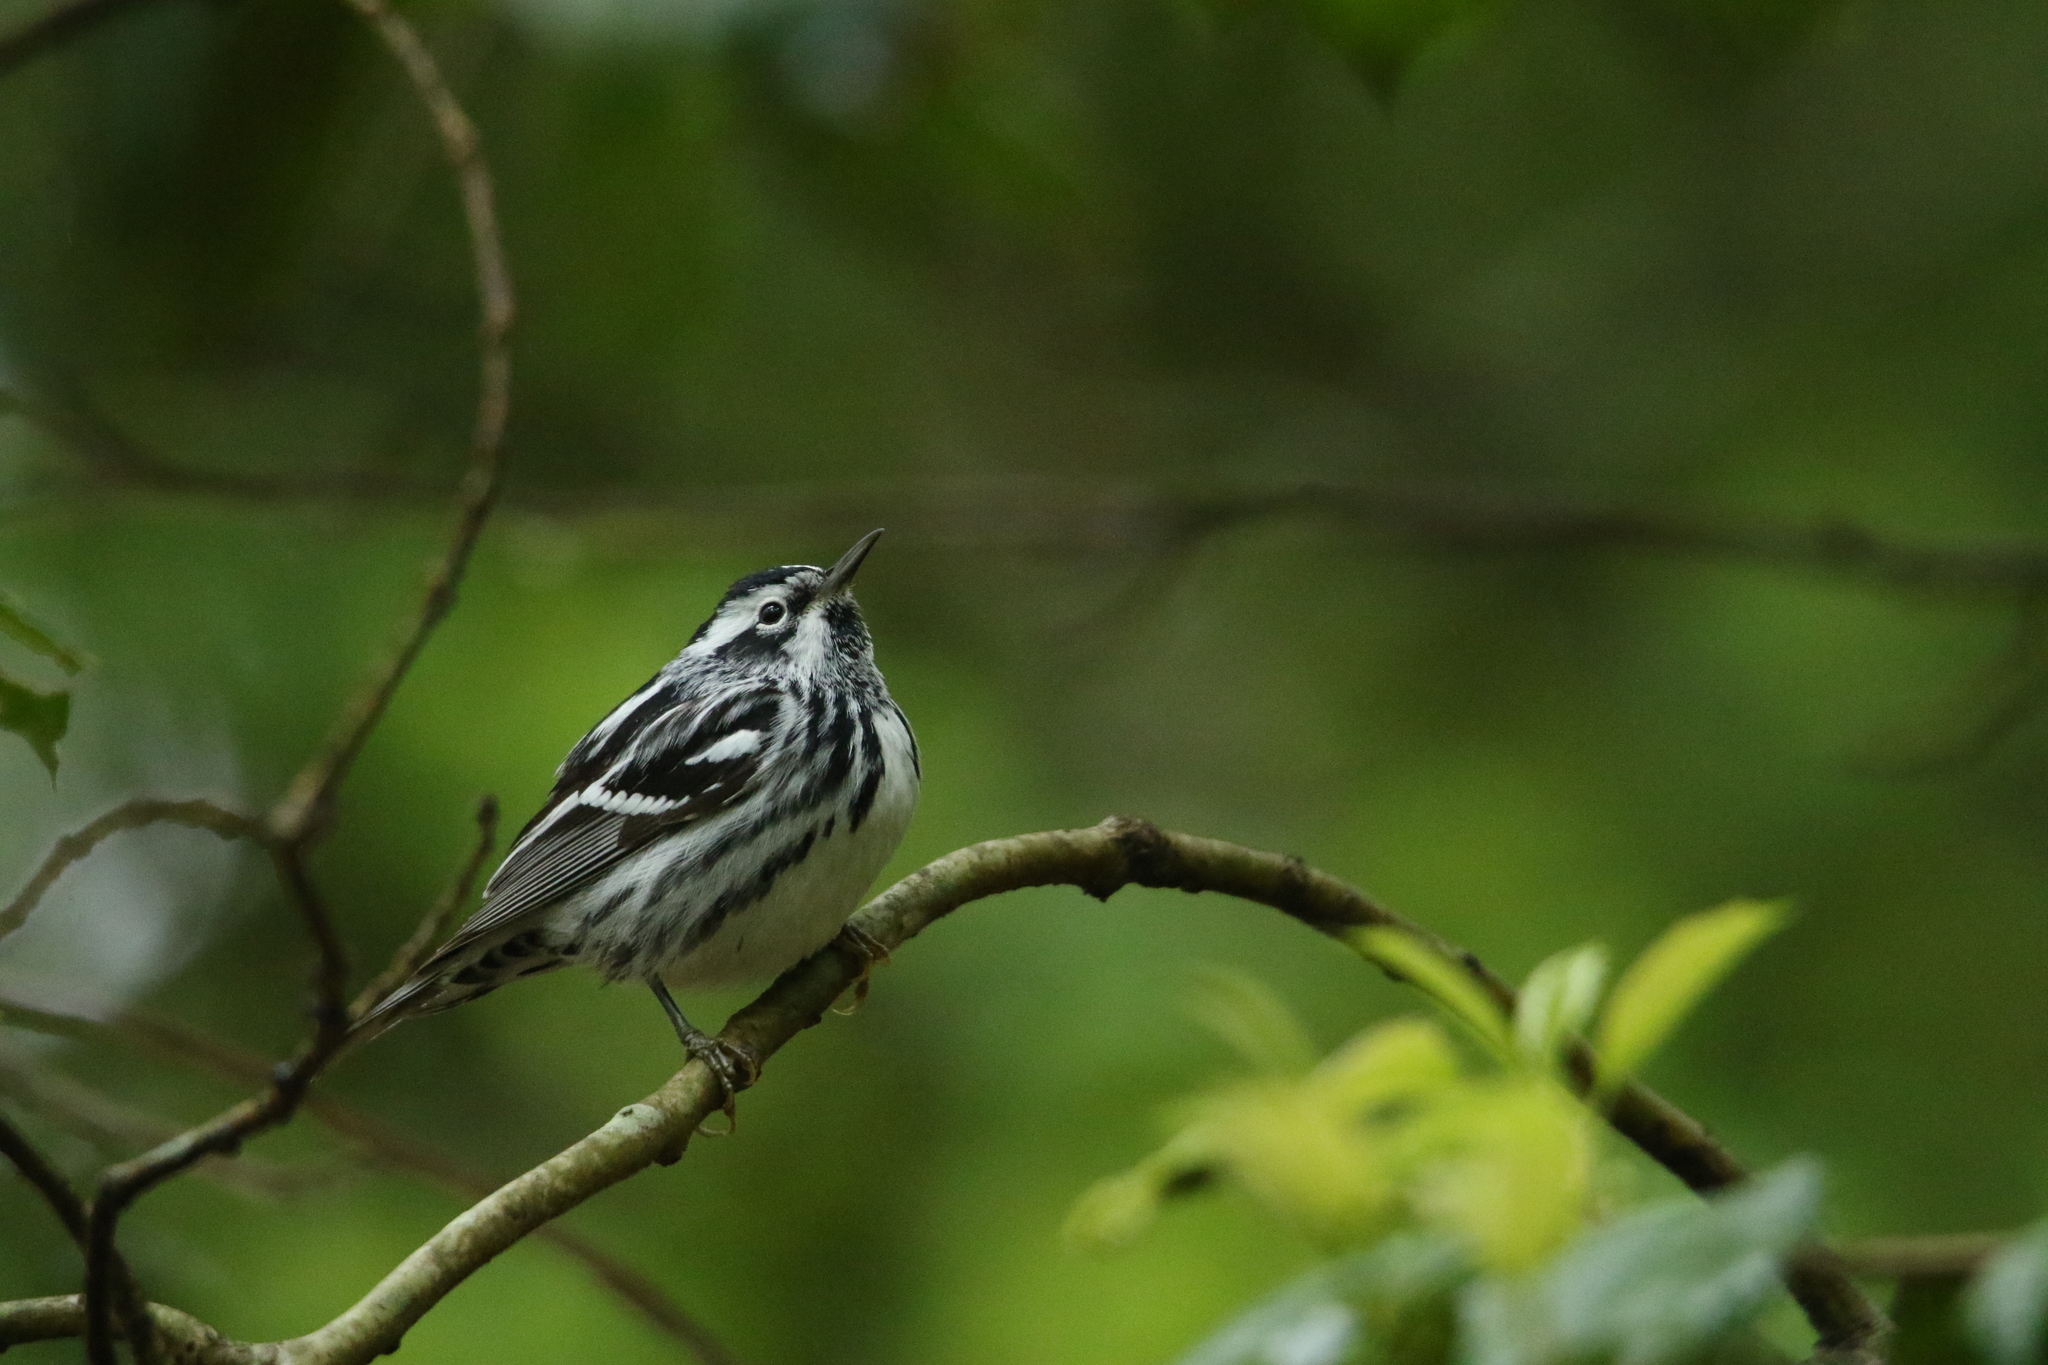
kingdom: Animalia
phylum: Chordata
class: Aves
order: Passeriformes
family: Parulidae
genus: Mniotilta
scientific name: Mniotilta varia
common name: Black-and-white warbler
